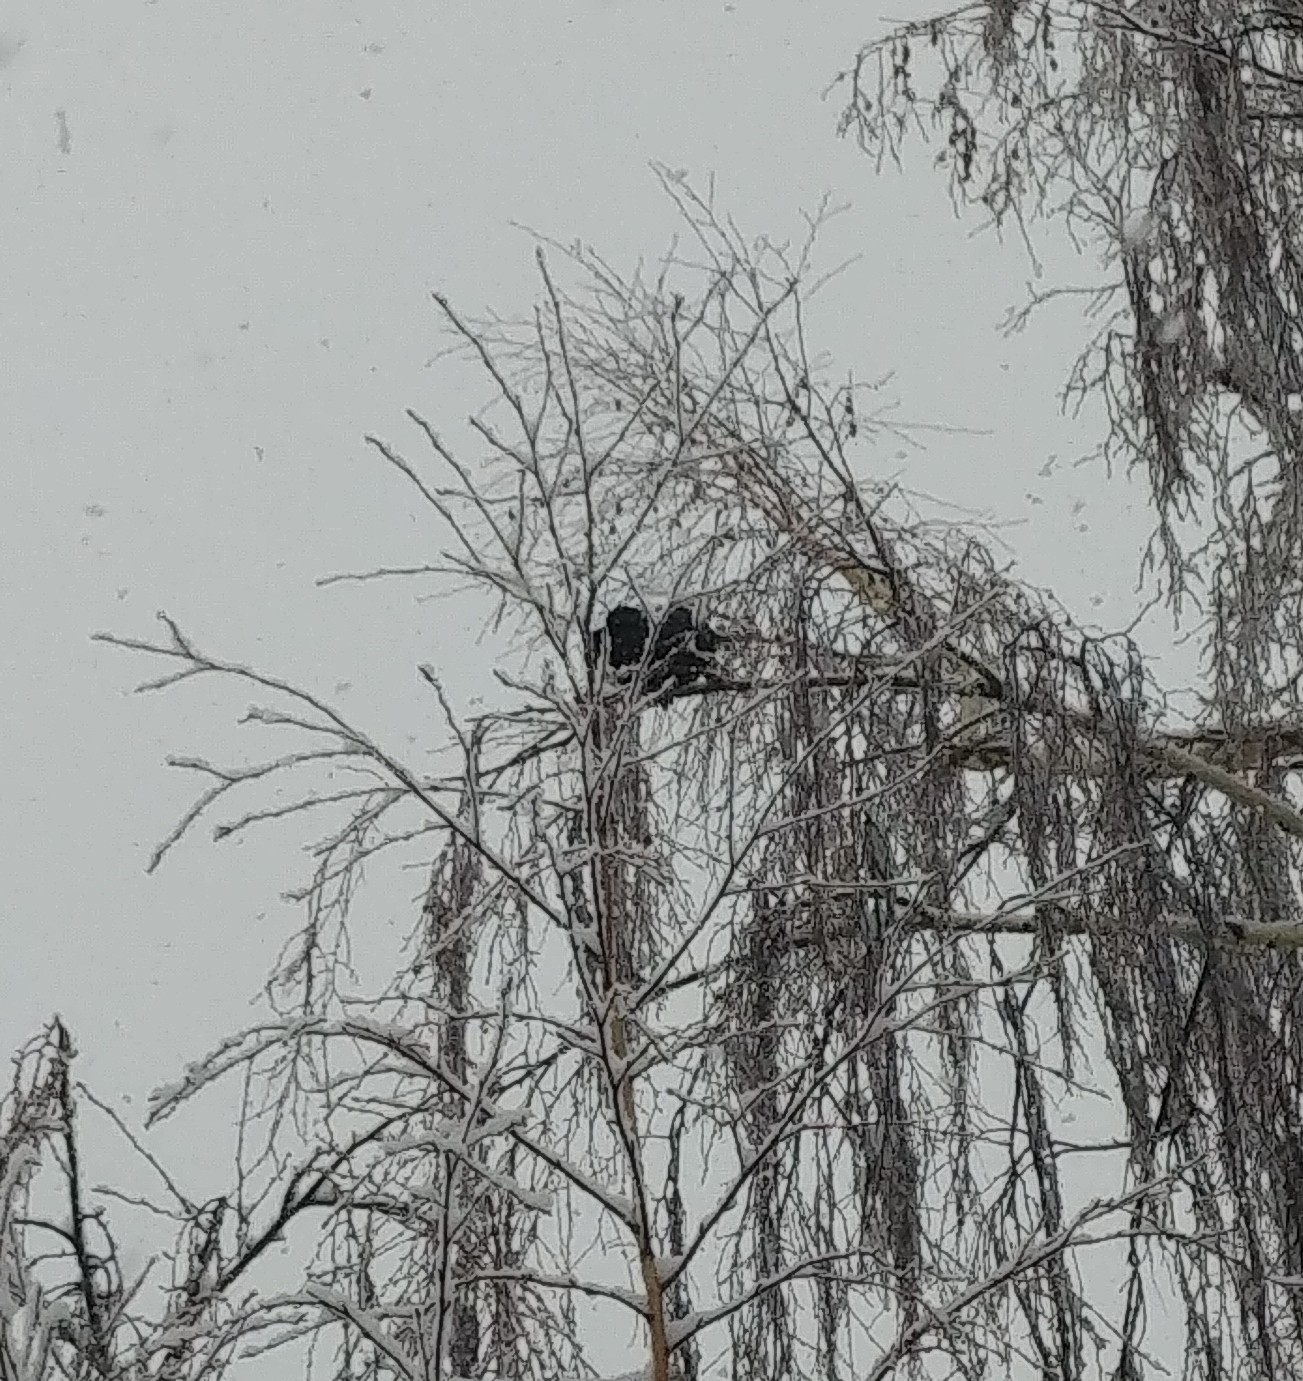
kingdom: Animalia
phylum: Chordata
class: Aves
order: Passeriformes
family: Corvidae
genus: Corvus
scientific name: Corvus brachyrhynchos
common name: American crow
